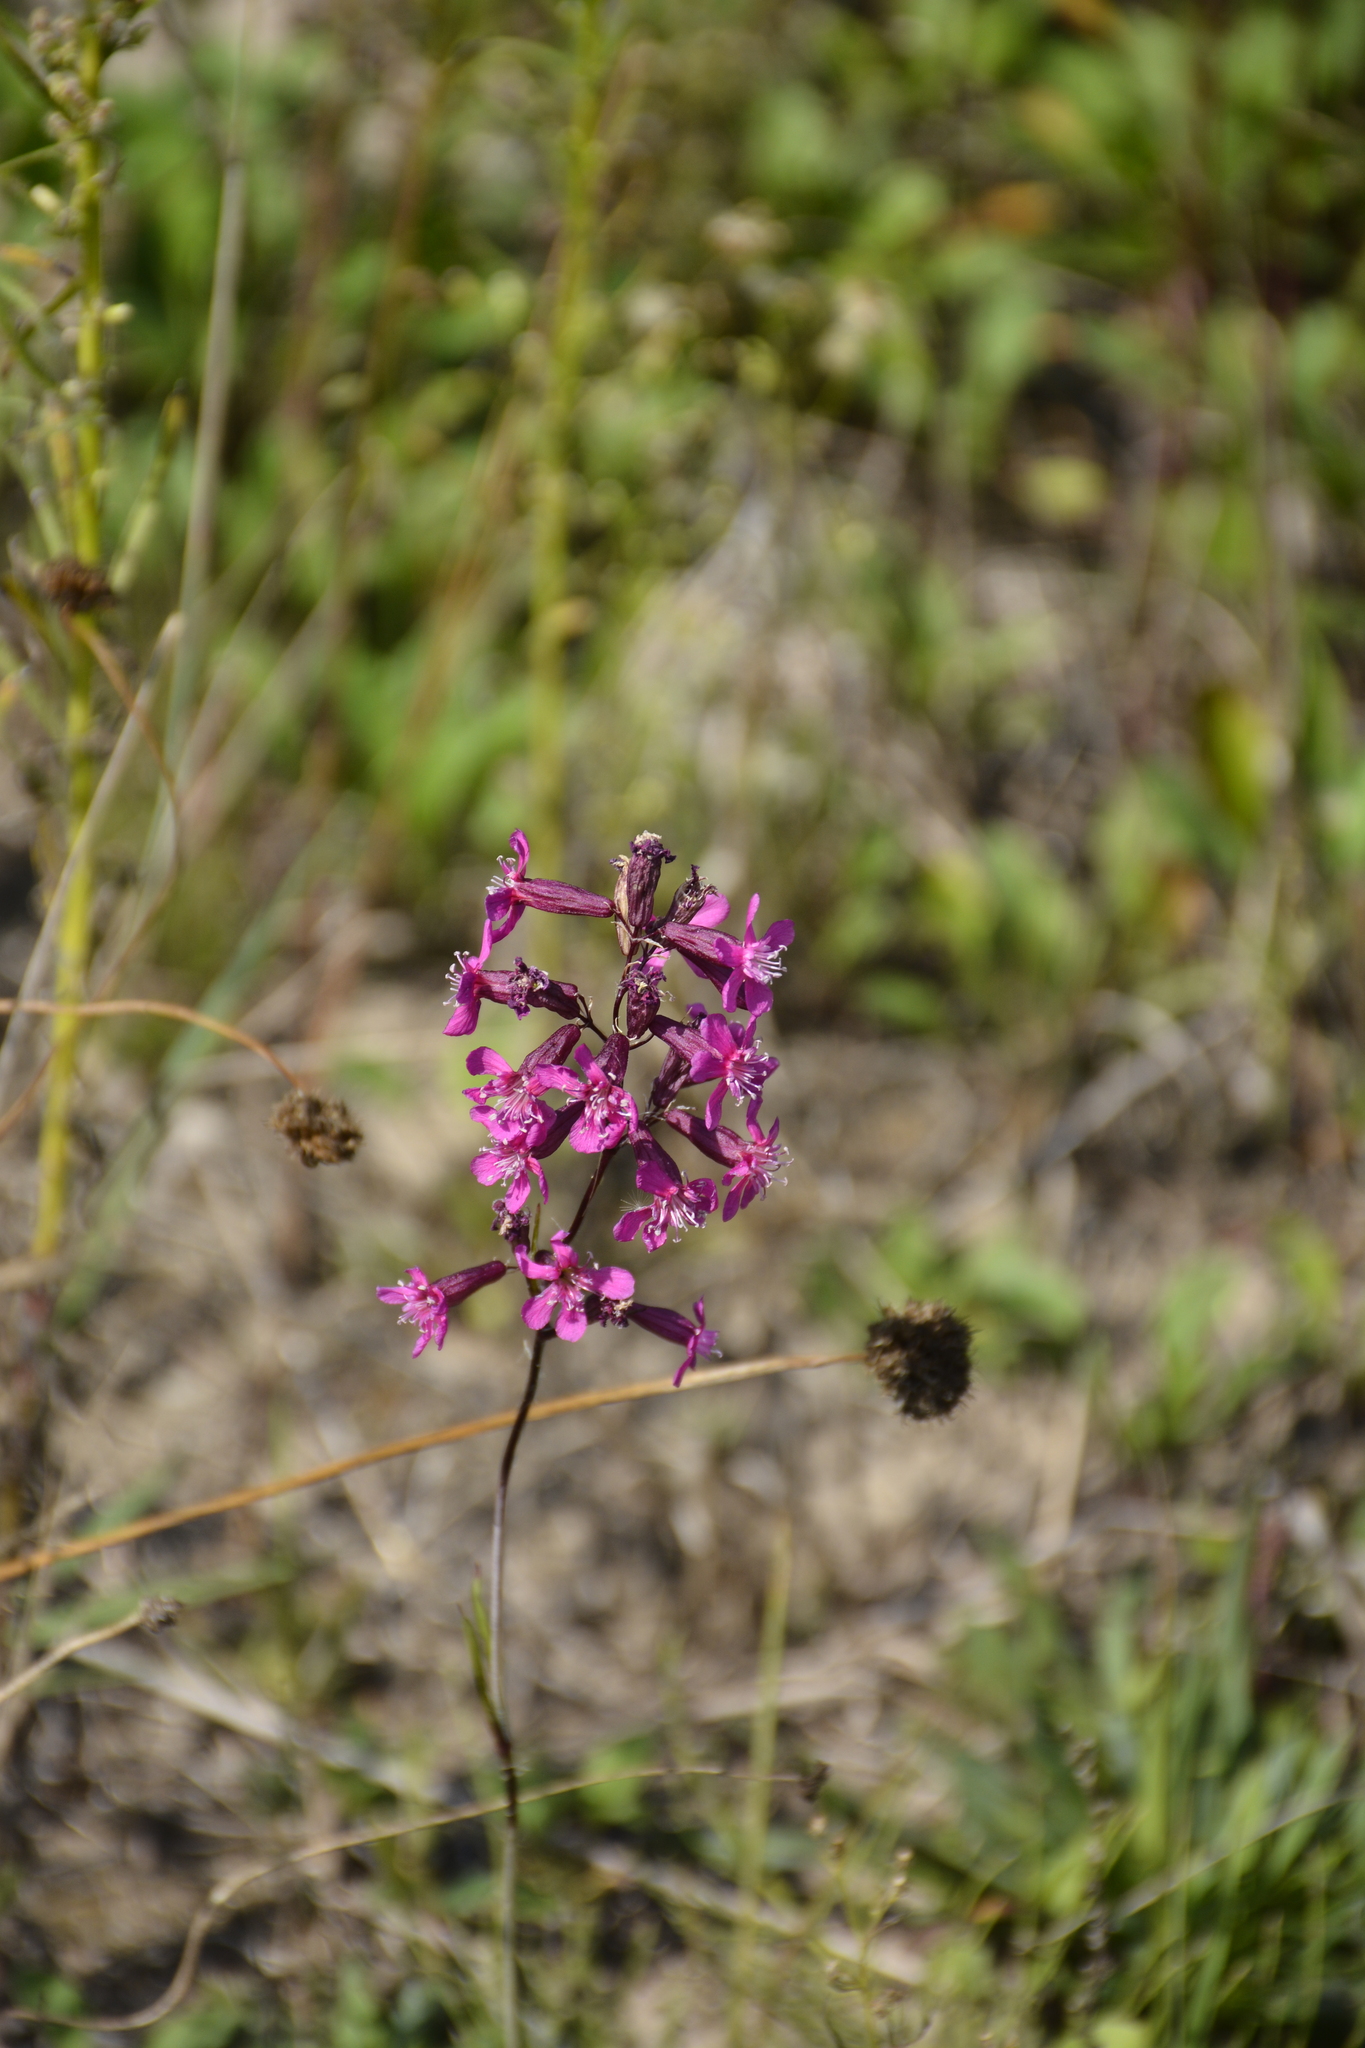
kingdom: Plantae
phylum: Tracheophyta
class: Magnoliopsida
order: Caryophyllales
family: Caryophyllaceae
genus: Viscaria
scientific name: Viscaria vulgaris
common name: Clammy campion
